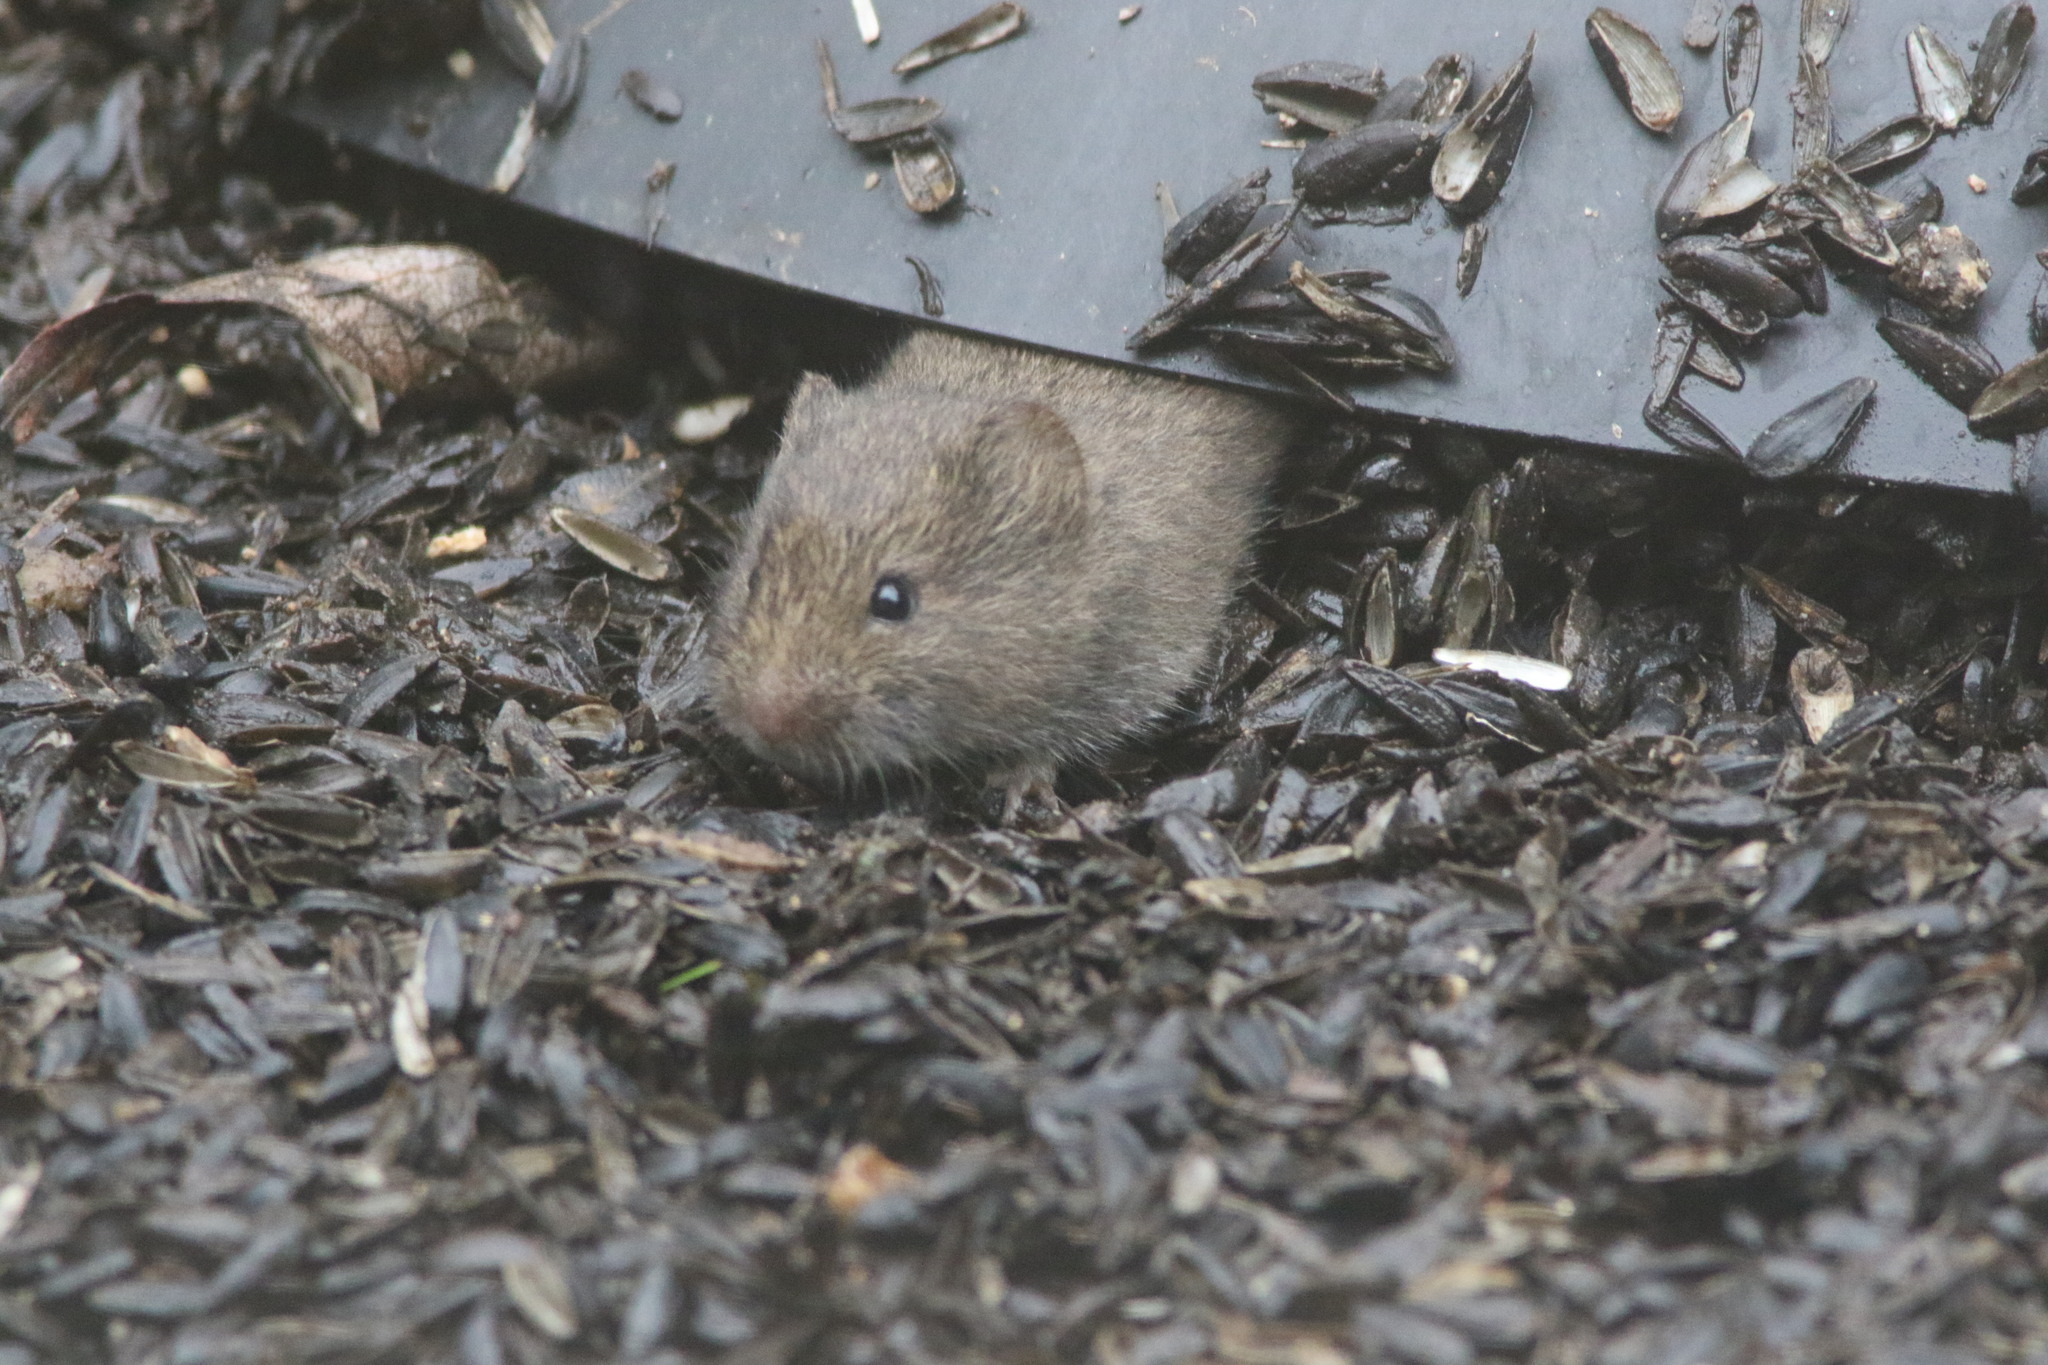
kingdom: Animalia
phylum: Chordata
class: Mammalia
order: Rodentia
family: Cricetidae
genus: Microtus
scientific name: Microtus californicus
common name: California vole
